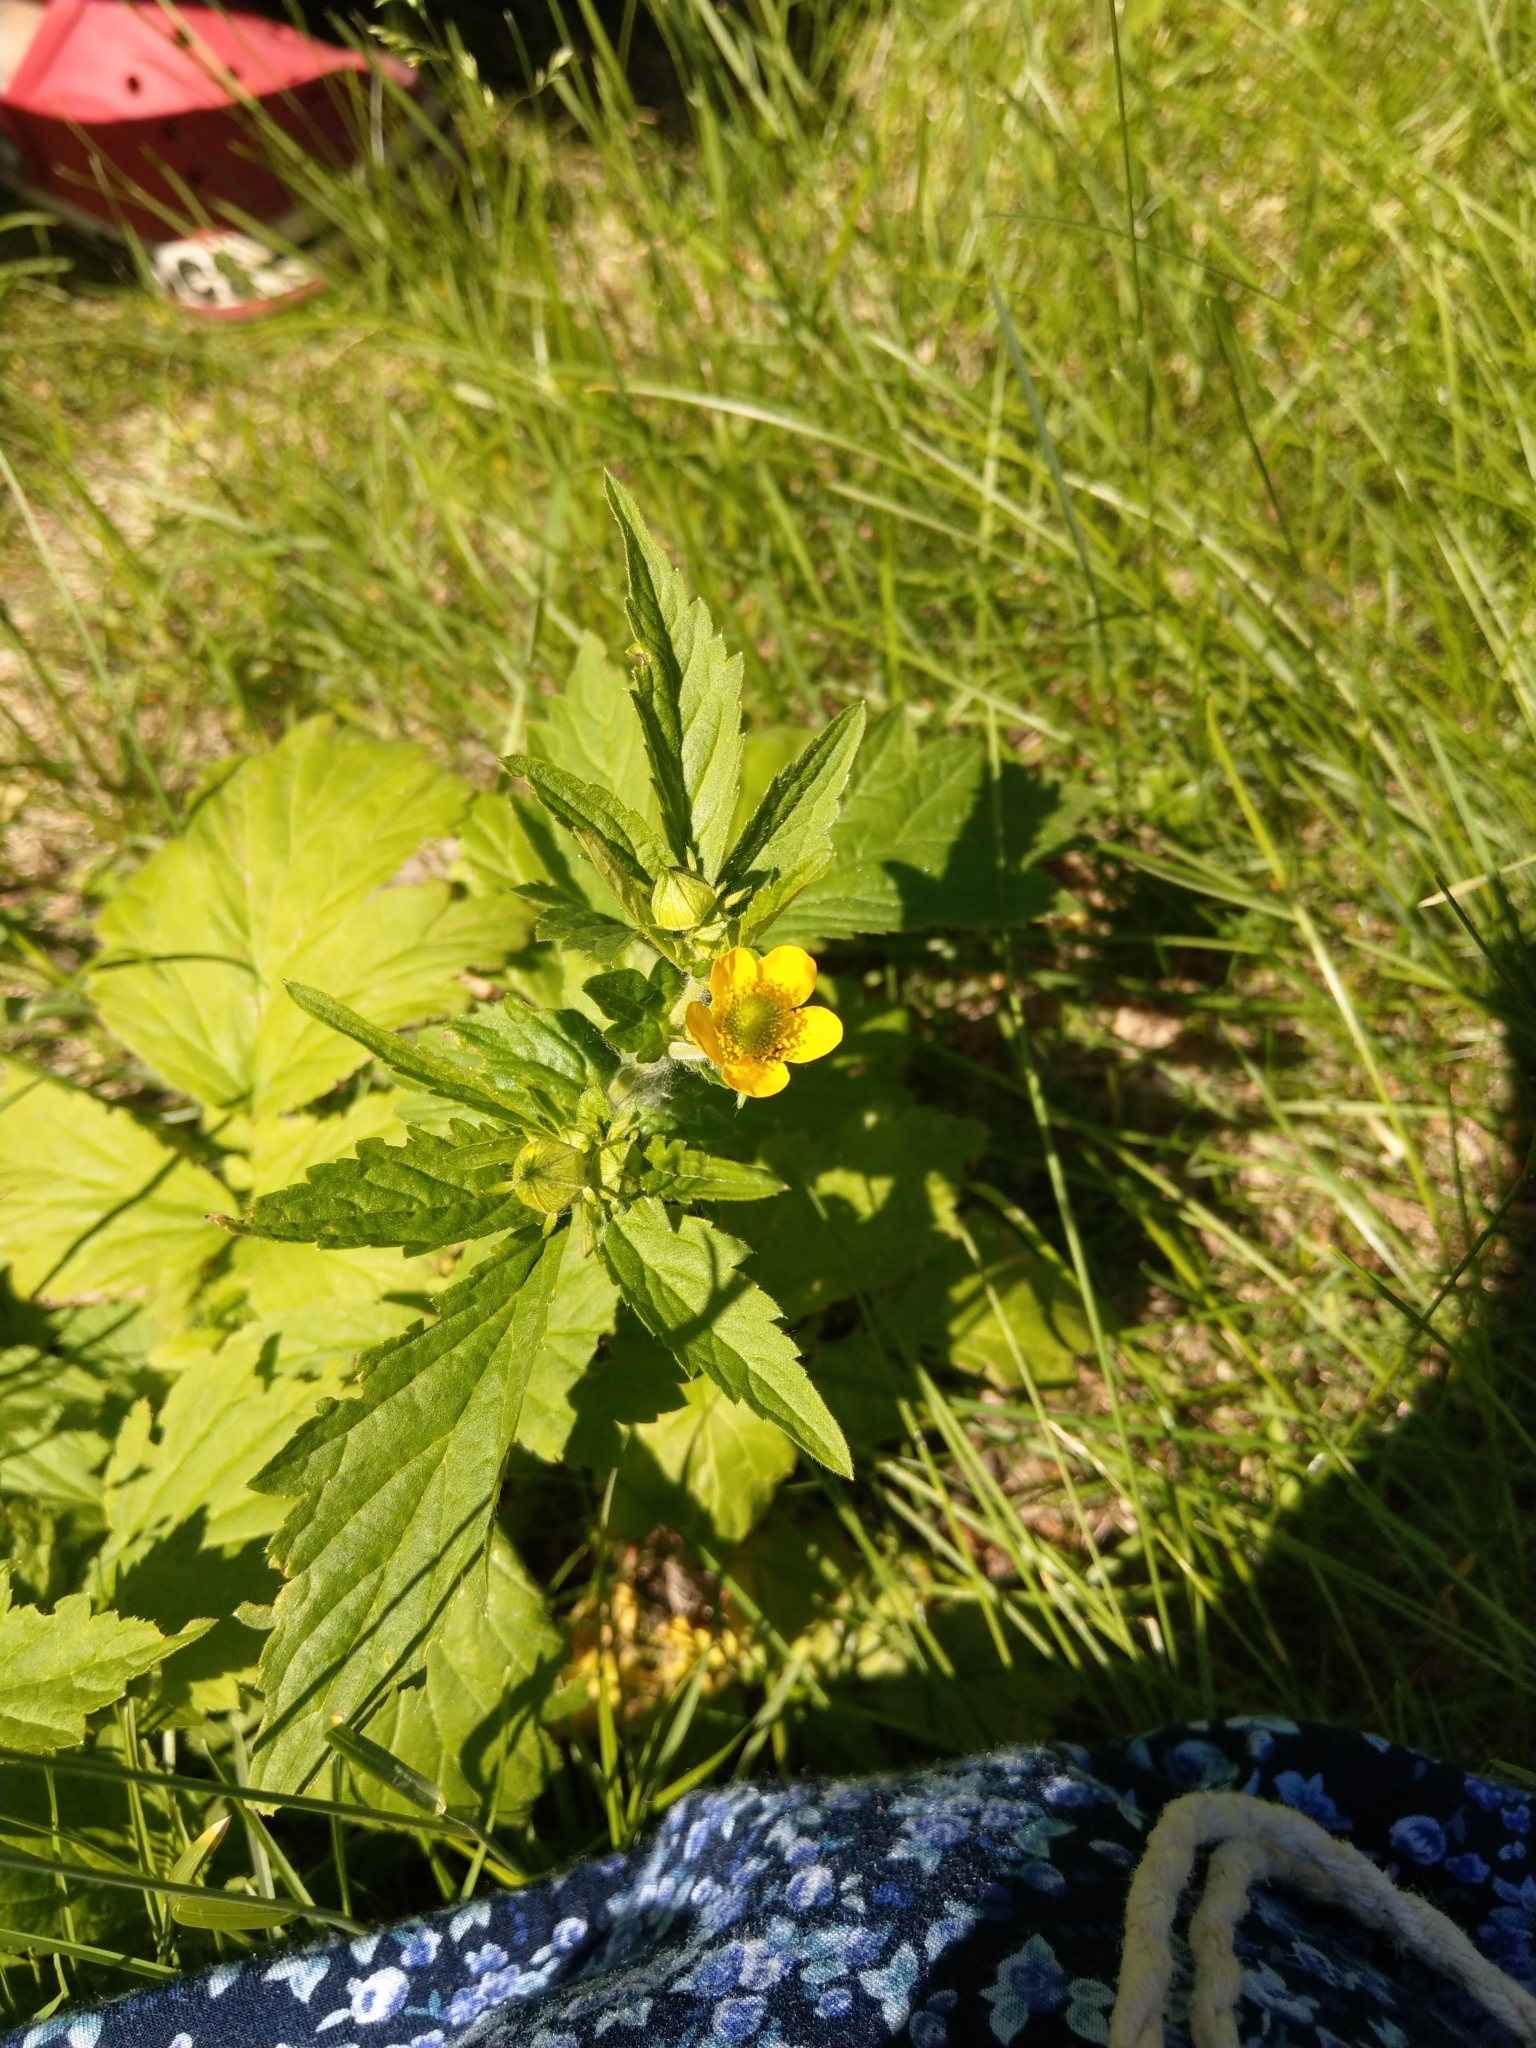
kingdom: Plantae
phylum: Tracheophyta
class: Magnoliopsida
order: Rosales
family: Rosaceae
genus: Geum
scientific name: Geum aleppicum
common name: Yellow avens
